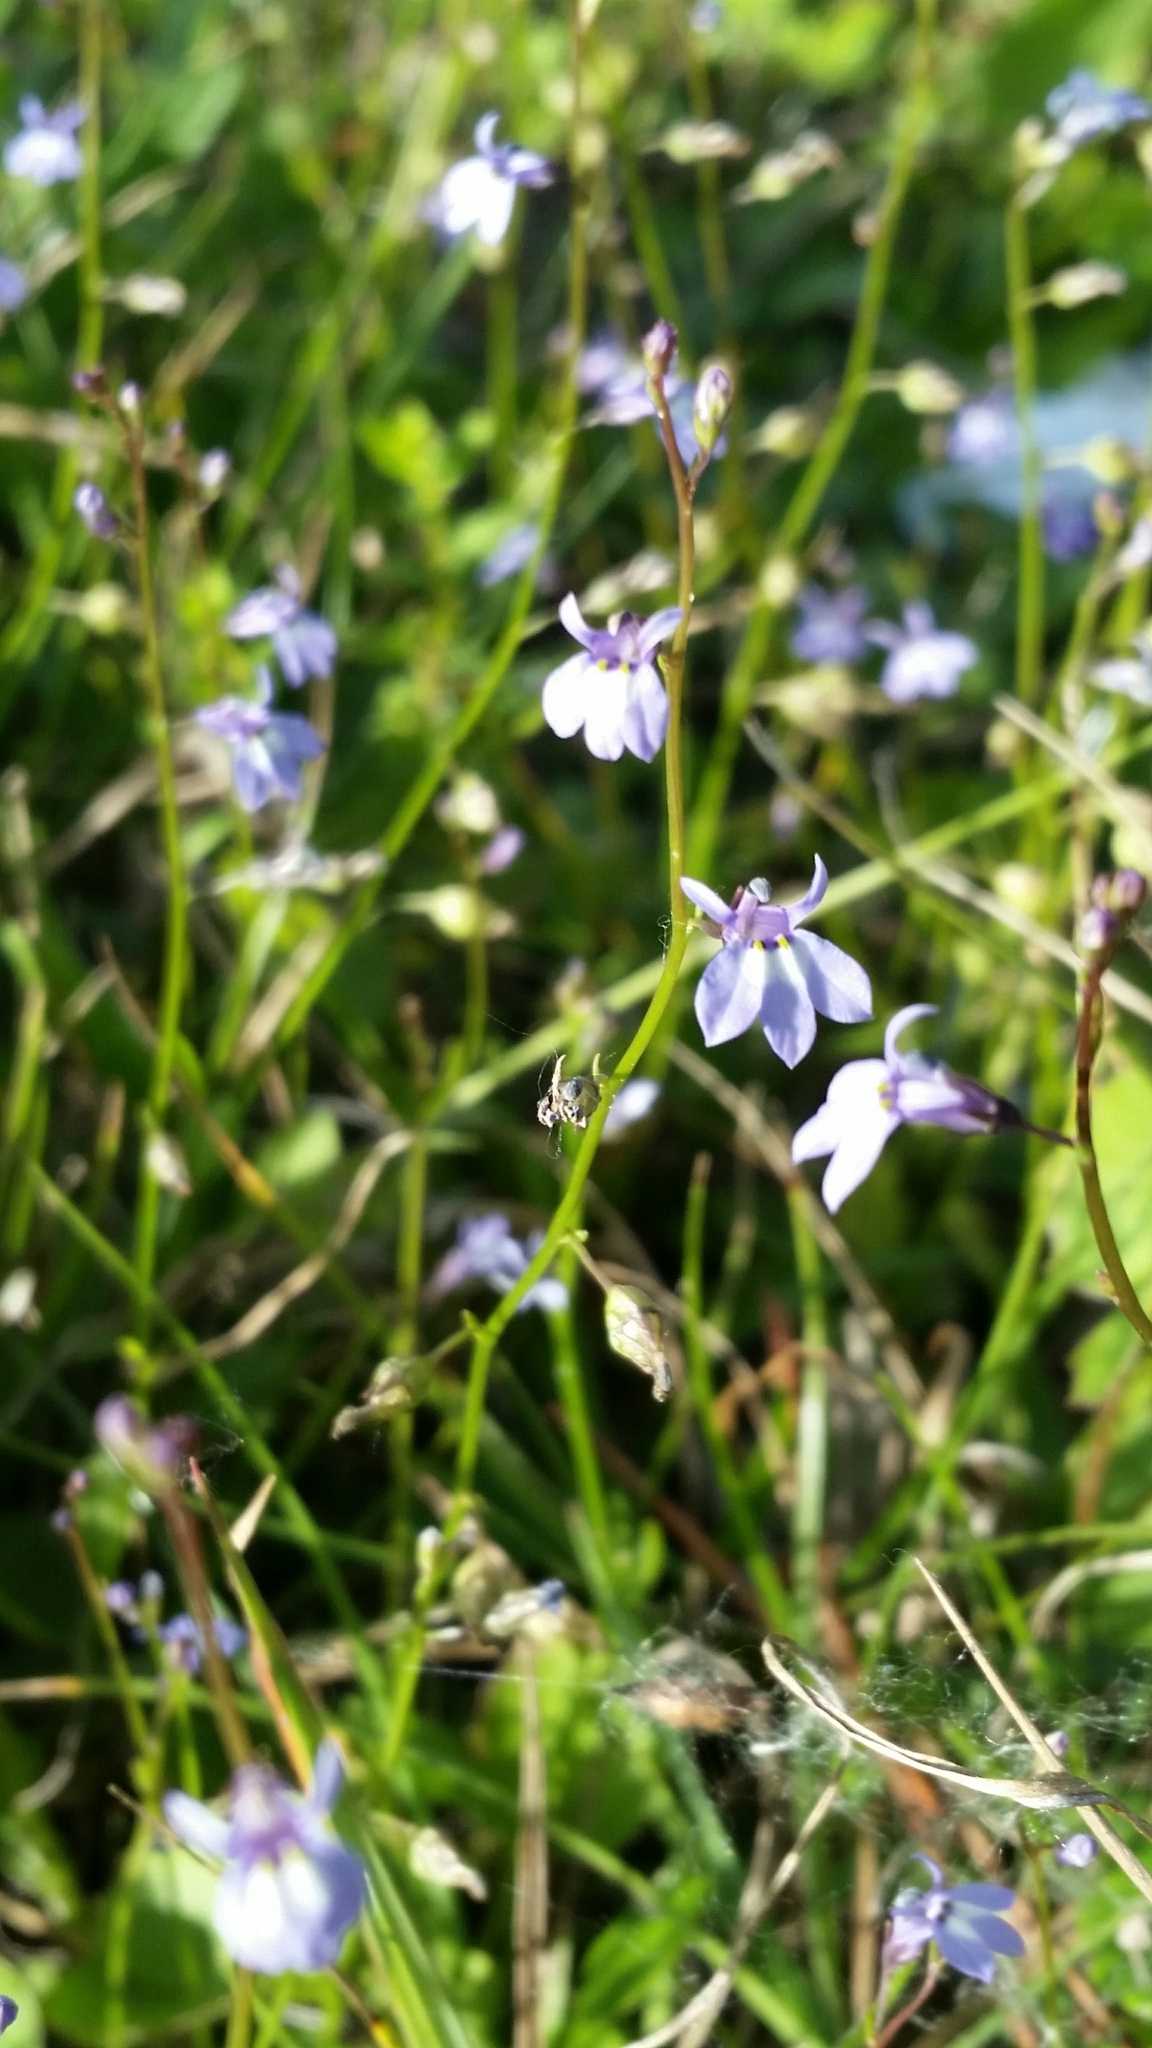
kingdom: Plantae
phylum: Tracheophyta
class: Magnoliopsida
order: Asterales
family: Campanulaceae
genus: Lobelia
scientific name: Lobelia feayana
